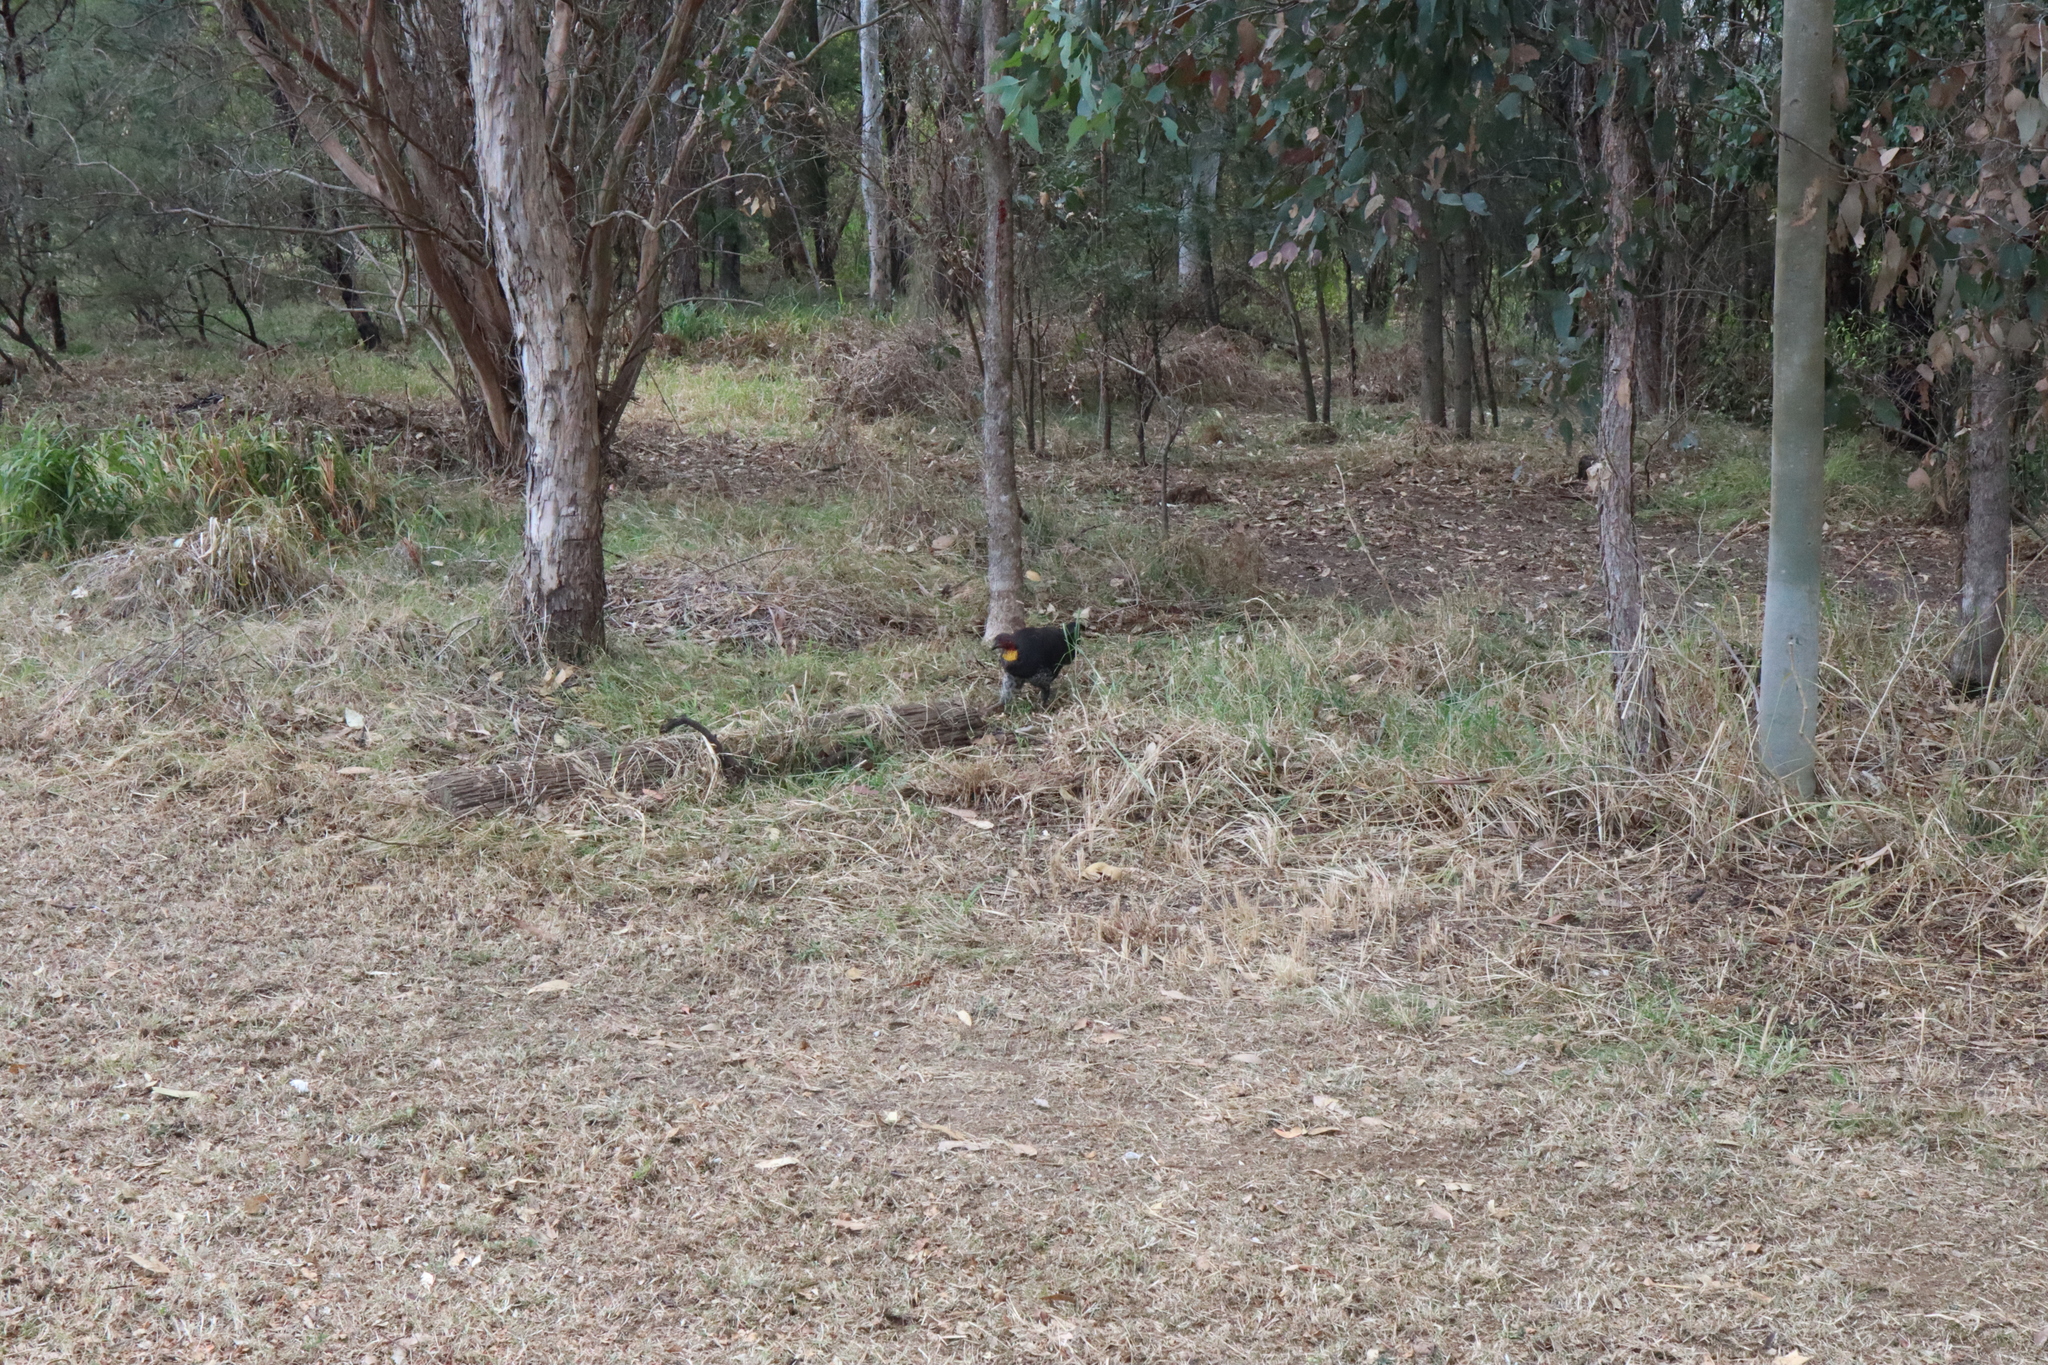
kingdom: Animalia
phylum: Chordata
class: Aves
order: Galliformes
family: Megapodiidae
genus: Alectura
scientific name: Alectura lathami
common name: Australian brushturkey
